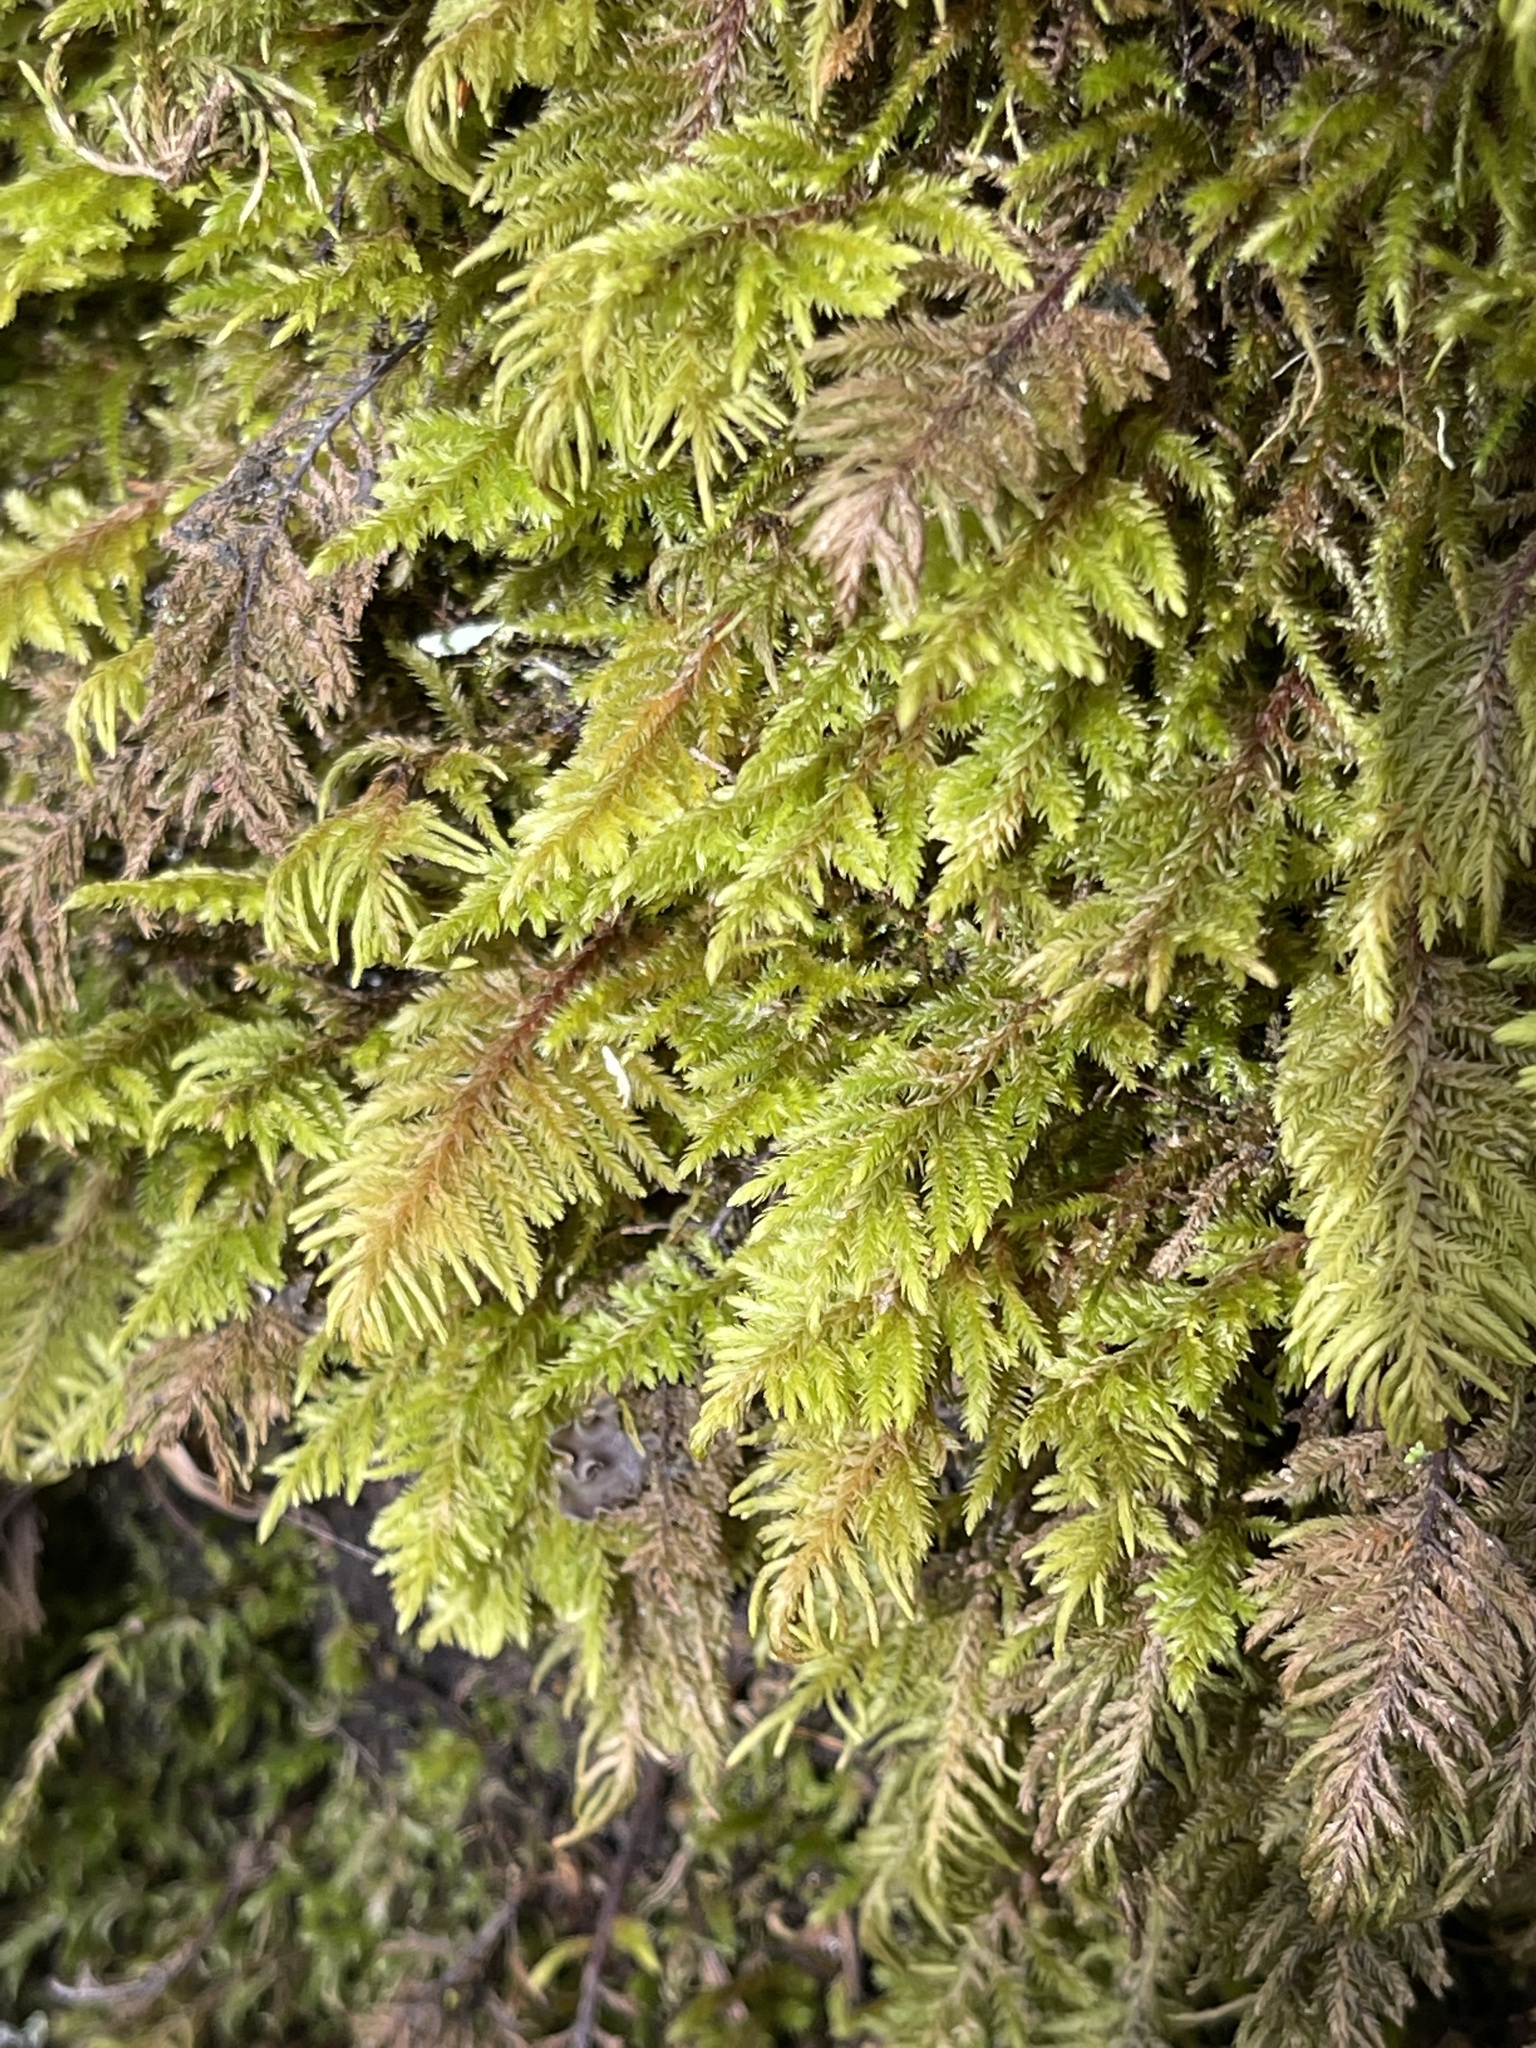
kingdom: Plantae
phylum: Bryophyta
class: Bryopsida
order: Hypnales
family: Cryphaeaceae
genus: Dendroalsia
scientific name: Dendroalsia abietina
